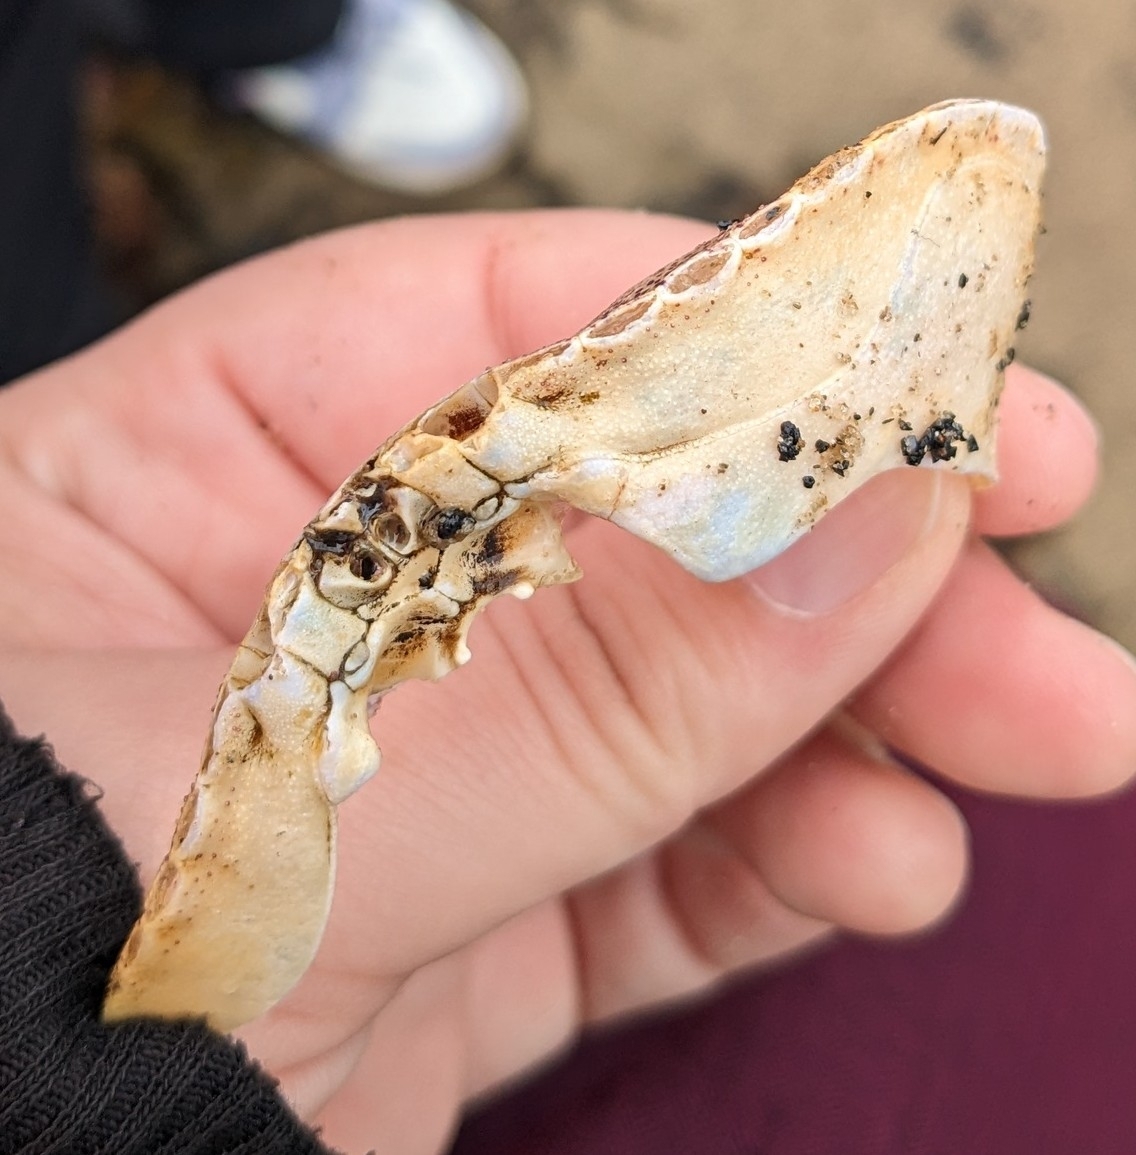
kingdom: Animalia
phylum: Arthropoda
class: Malacostraca
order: Decapoda
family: Cancridae
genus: Cancer
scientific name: Cancer irroratus
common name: Atlantic rock crab
